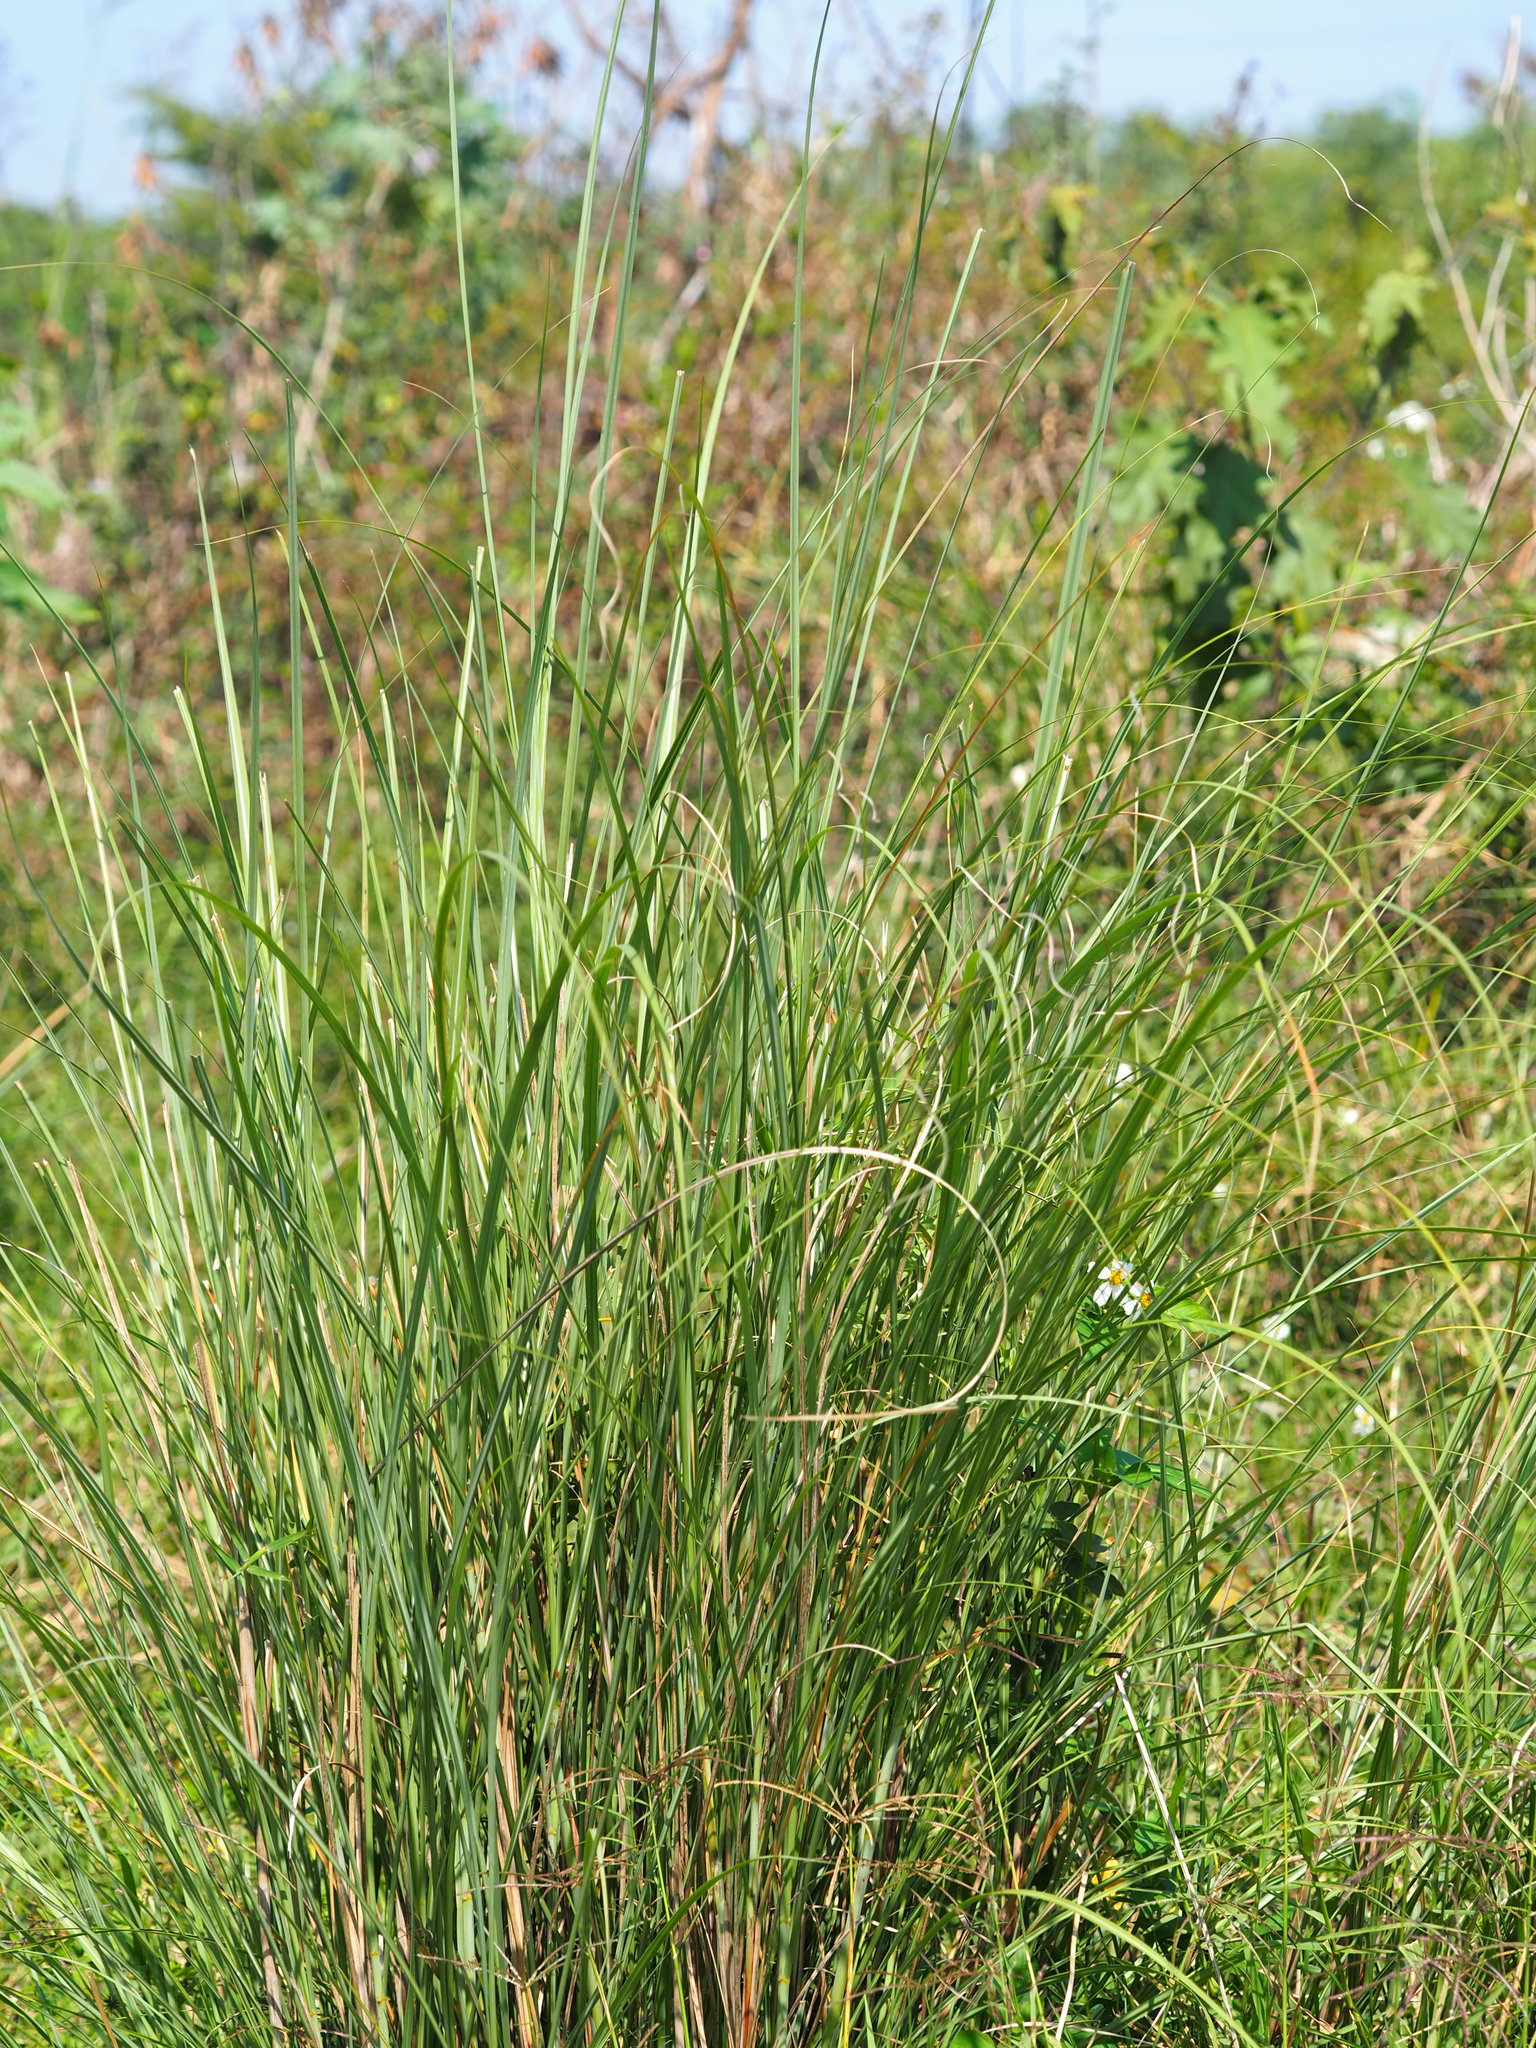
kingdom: Plantae
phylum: Tracheophyta
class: Liliopsida
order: Poales
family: Poaceae
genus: Saccharum
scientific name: Saccharum spontaneum
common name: Wild sugarcane
